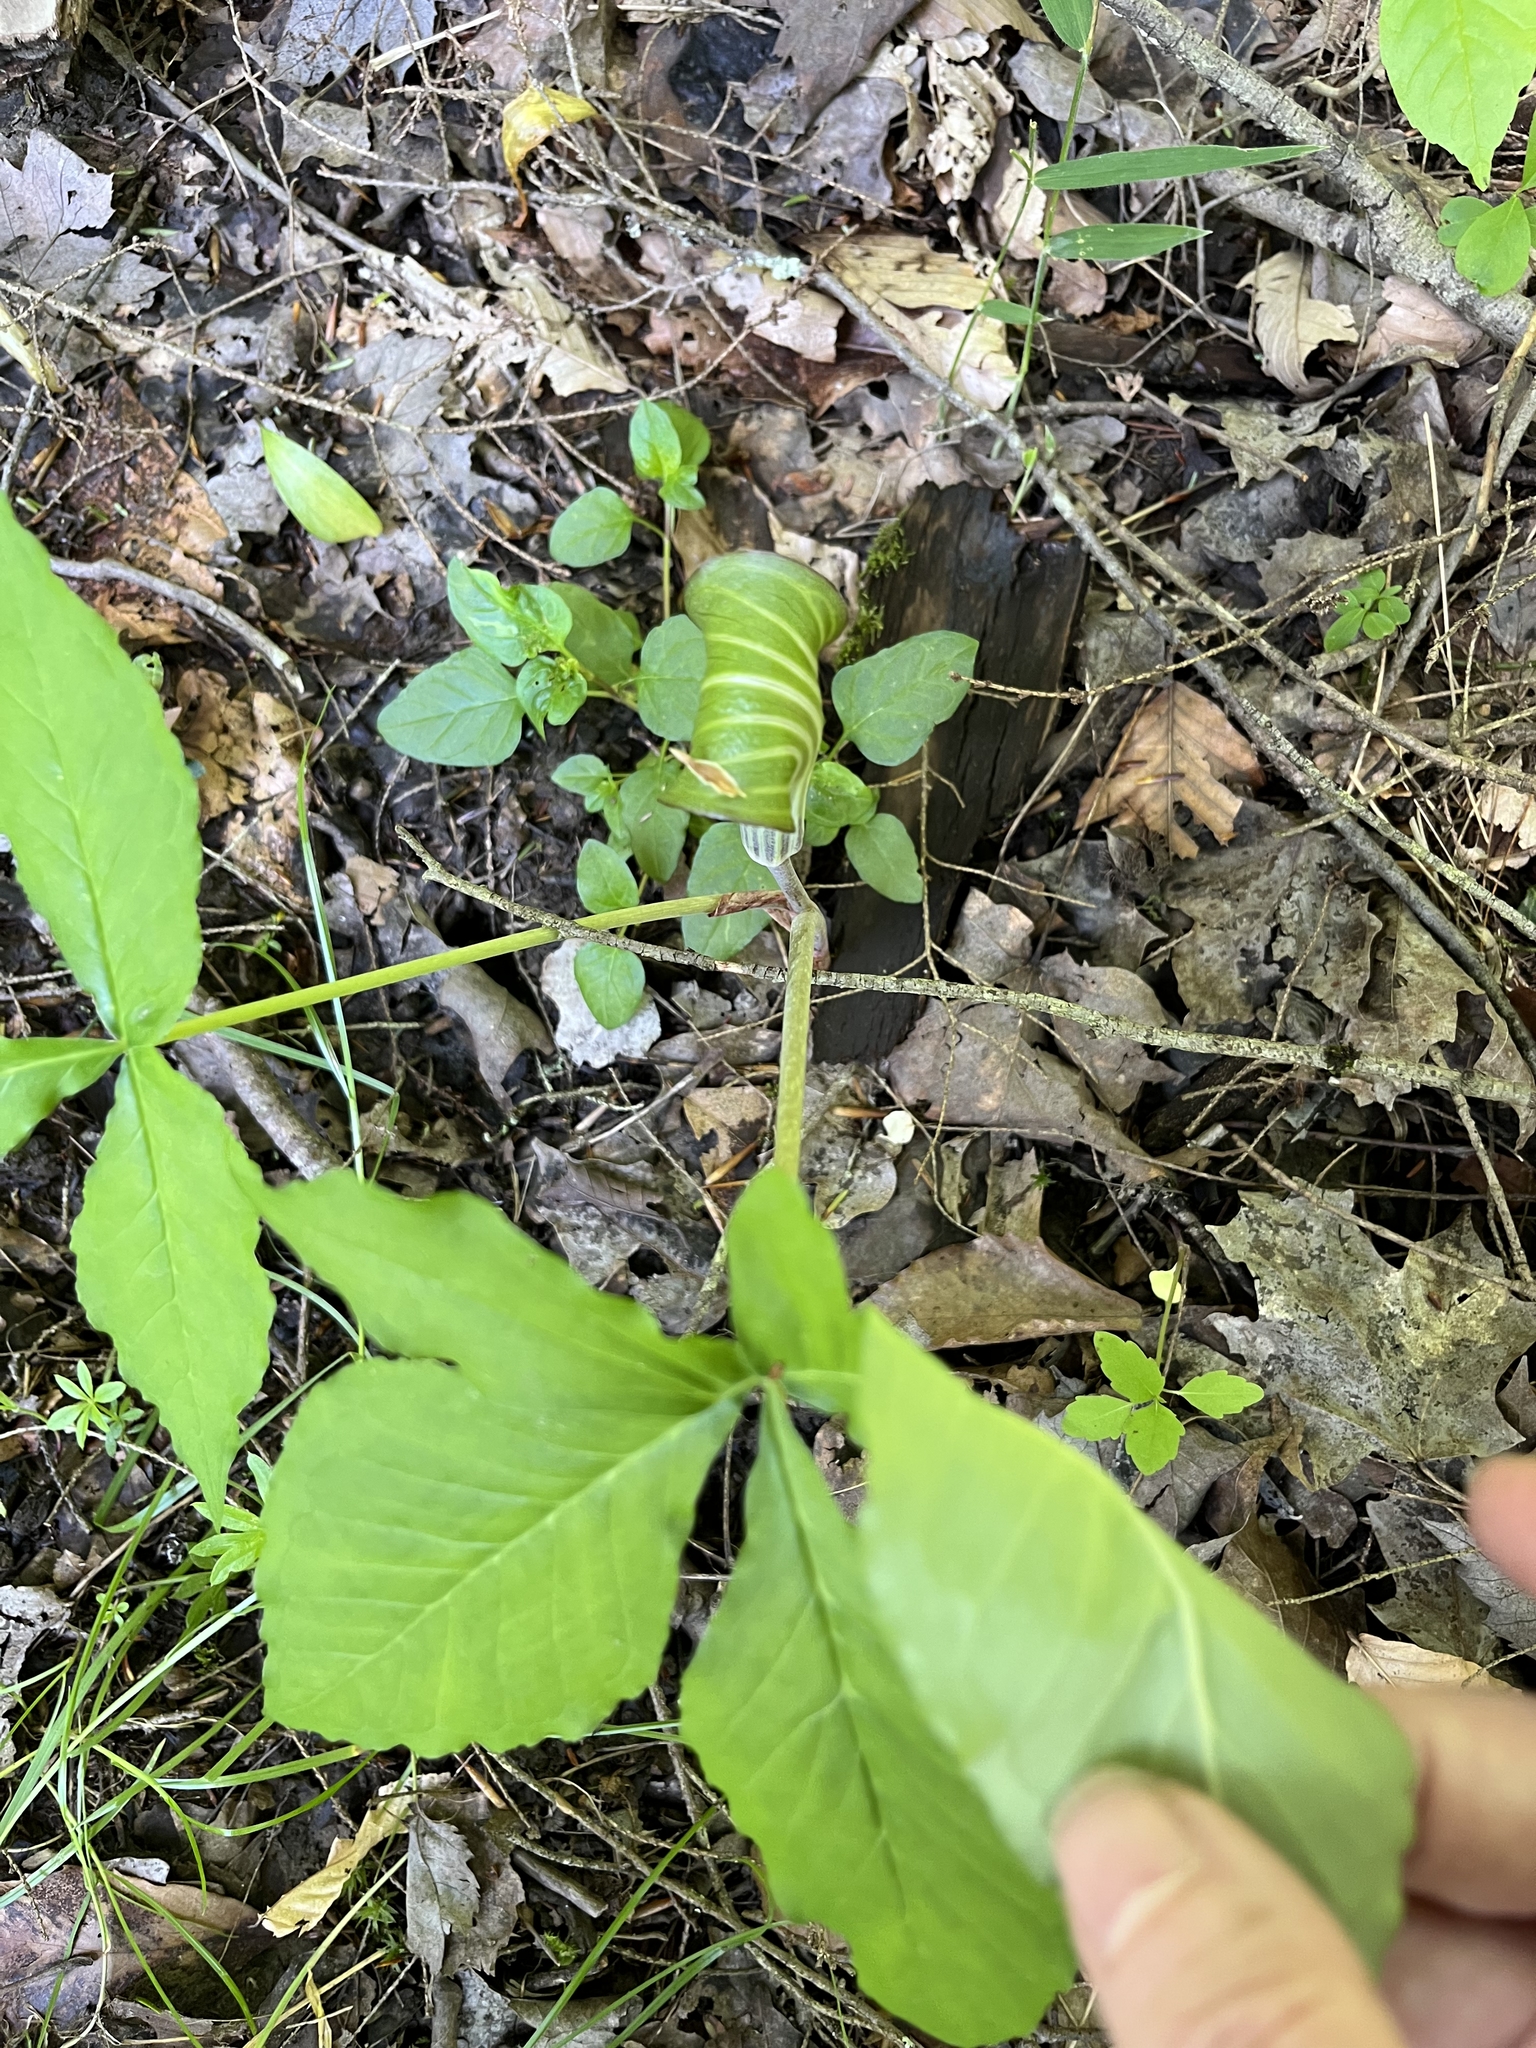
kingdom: Plantae
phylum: Tracheophyta
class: Liliopsida
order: Alismatales
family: Araceae
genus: Arisaema
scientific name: Arisaema triphyllum
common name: Jack-in-the-pulpit
